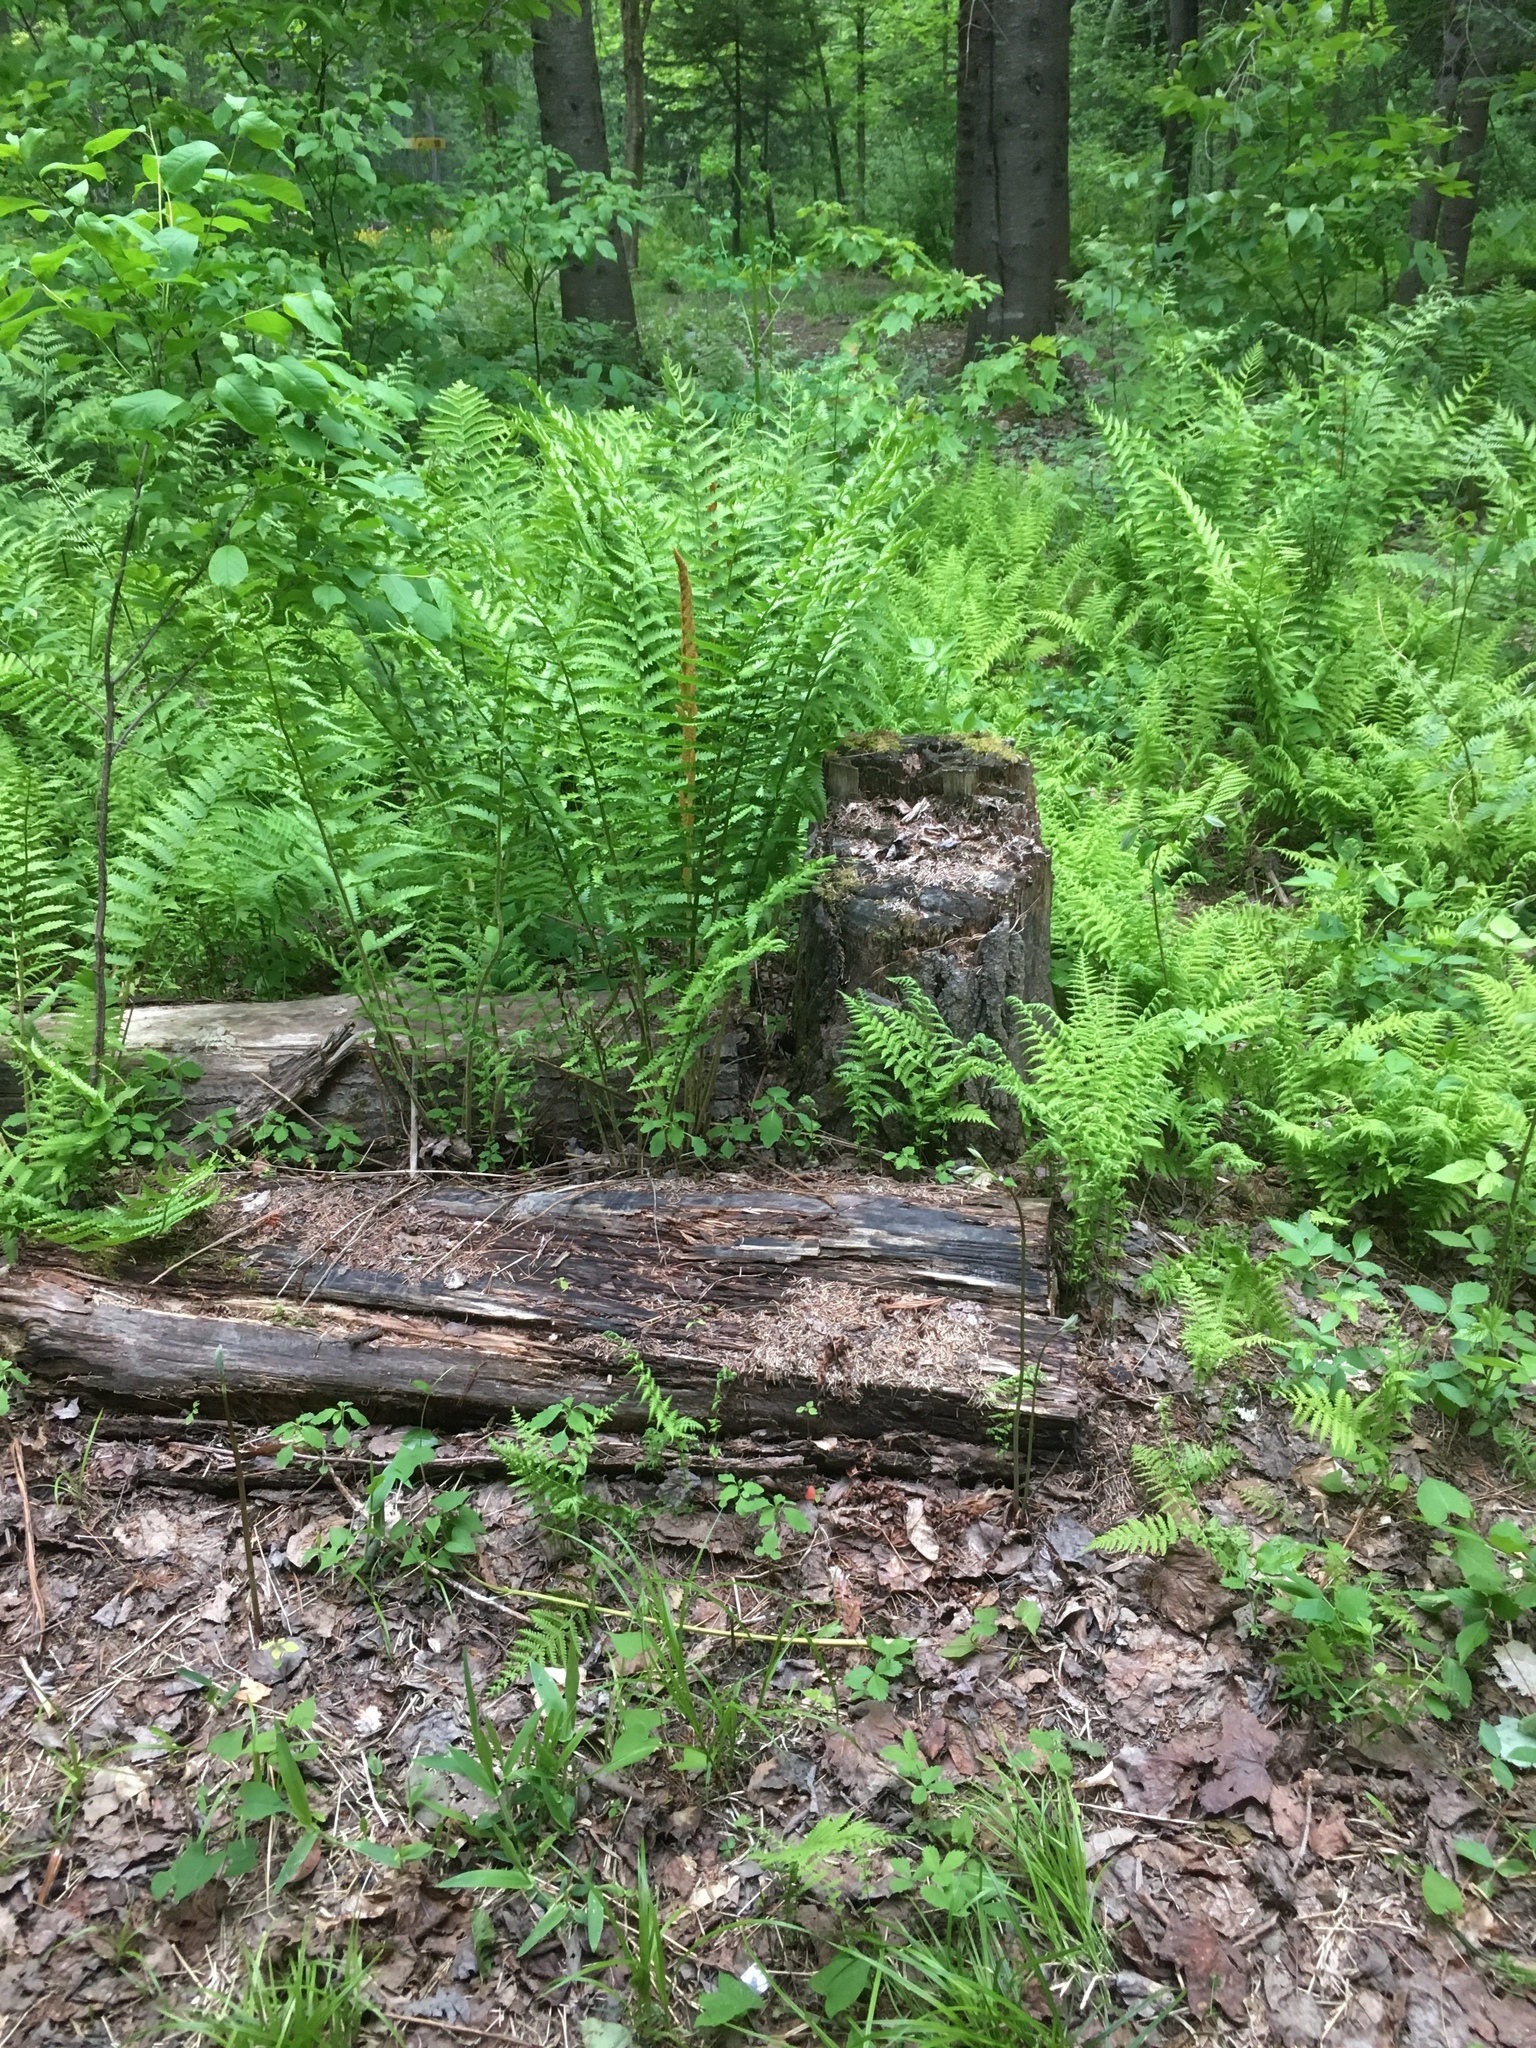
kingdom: Plantae
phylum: Tracheophyta
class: Polypodiopsida
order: Osmundales
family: Osmundaceae
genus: Osmundastrum
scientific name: Osmundastrum cinnamomeum
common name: Cinnamon fern
